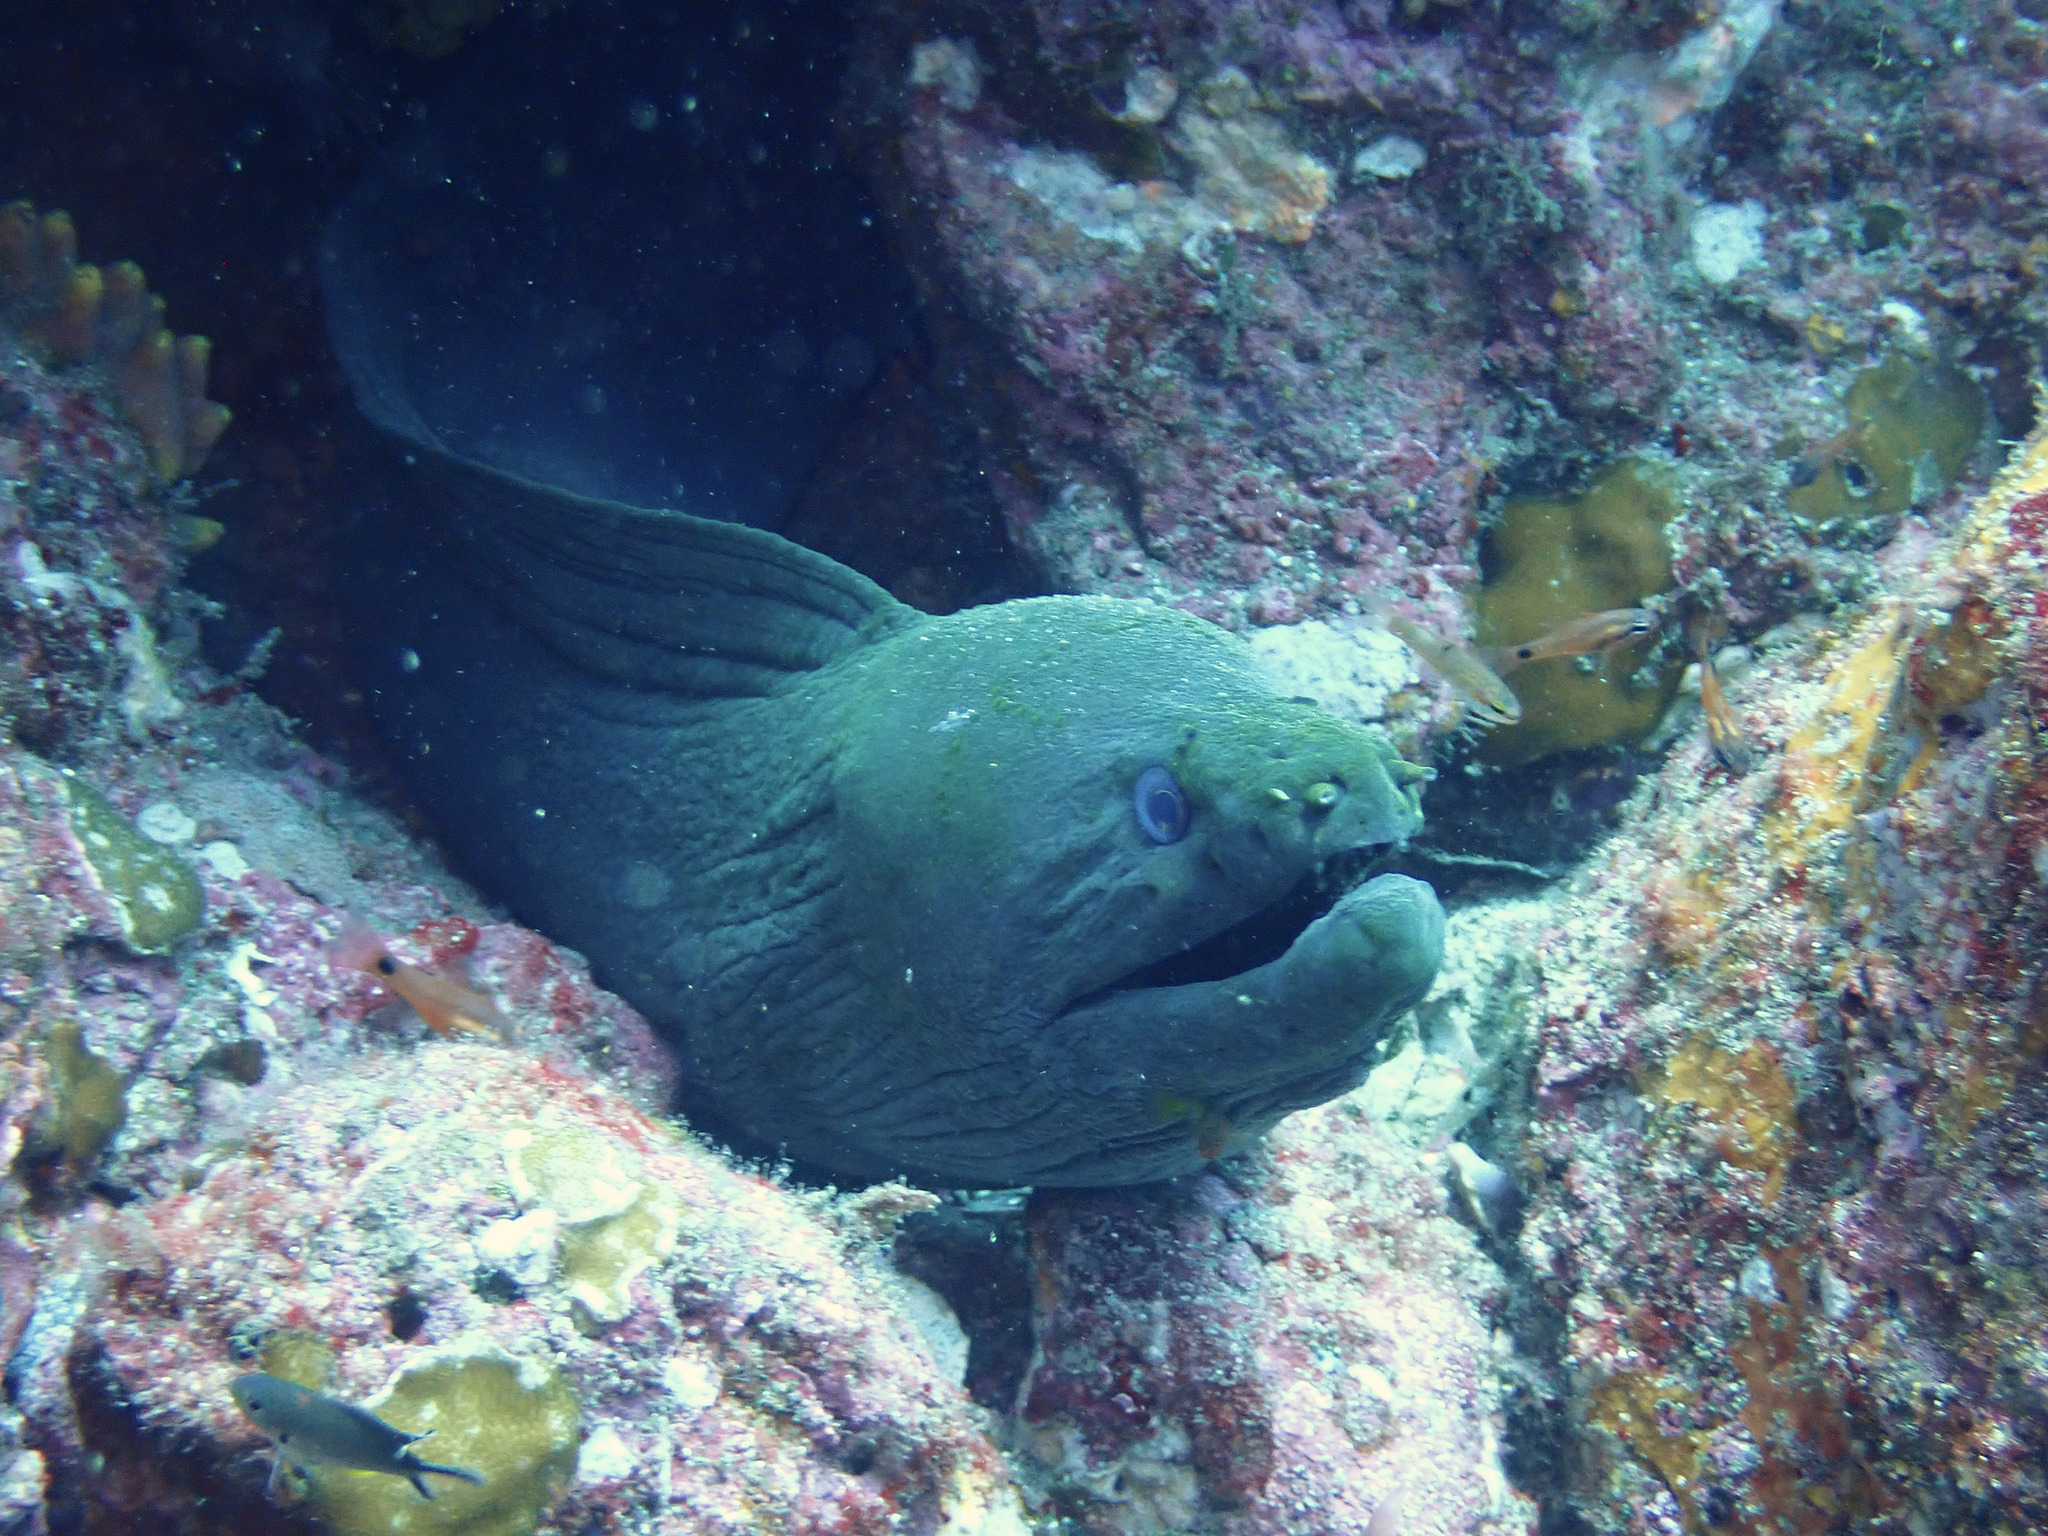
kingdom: Animalia
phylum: Chordata
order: Anguilliformes
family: Muraenidae
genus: Gymnothorax
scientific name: Gymnothorax castaneus
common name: Chestnut moray
